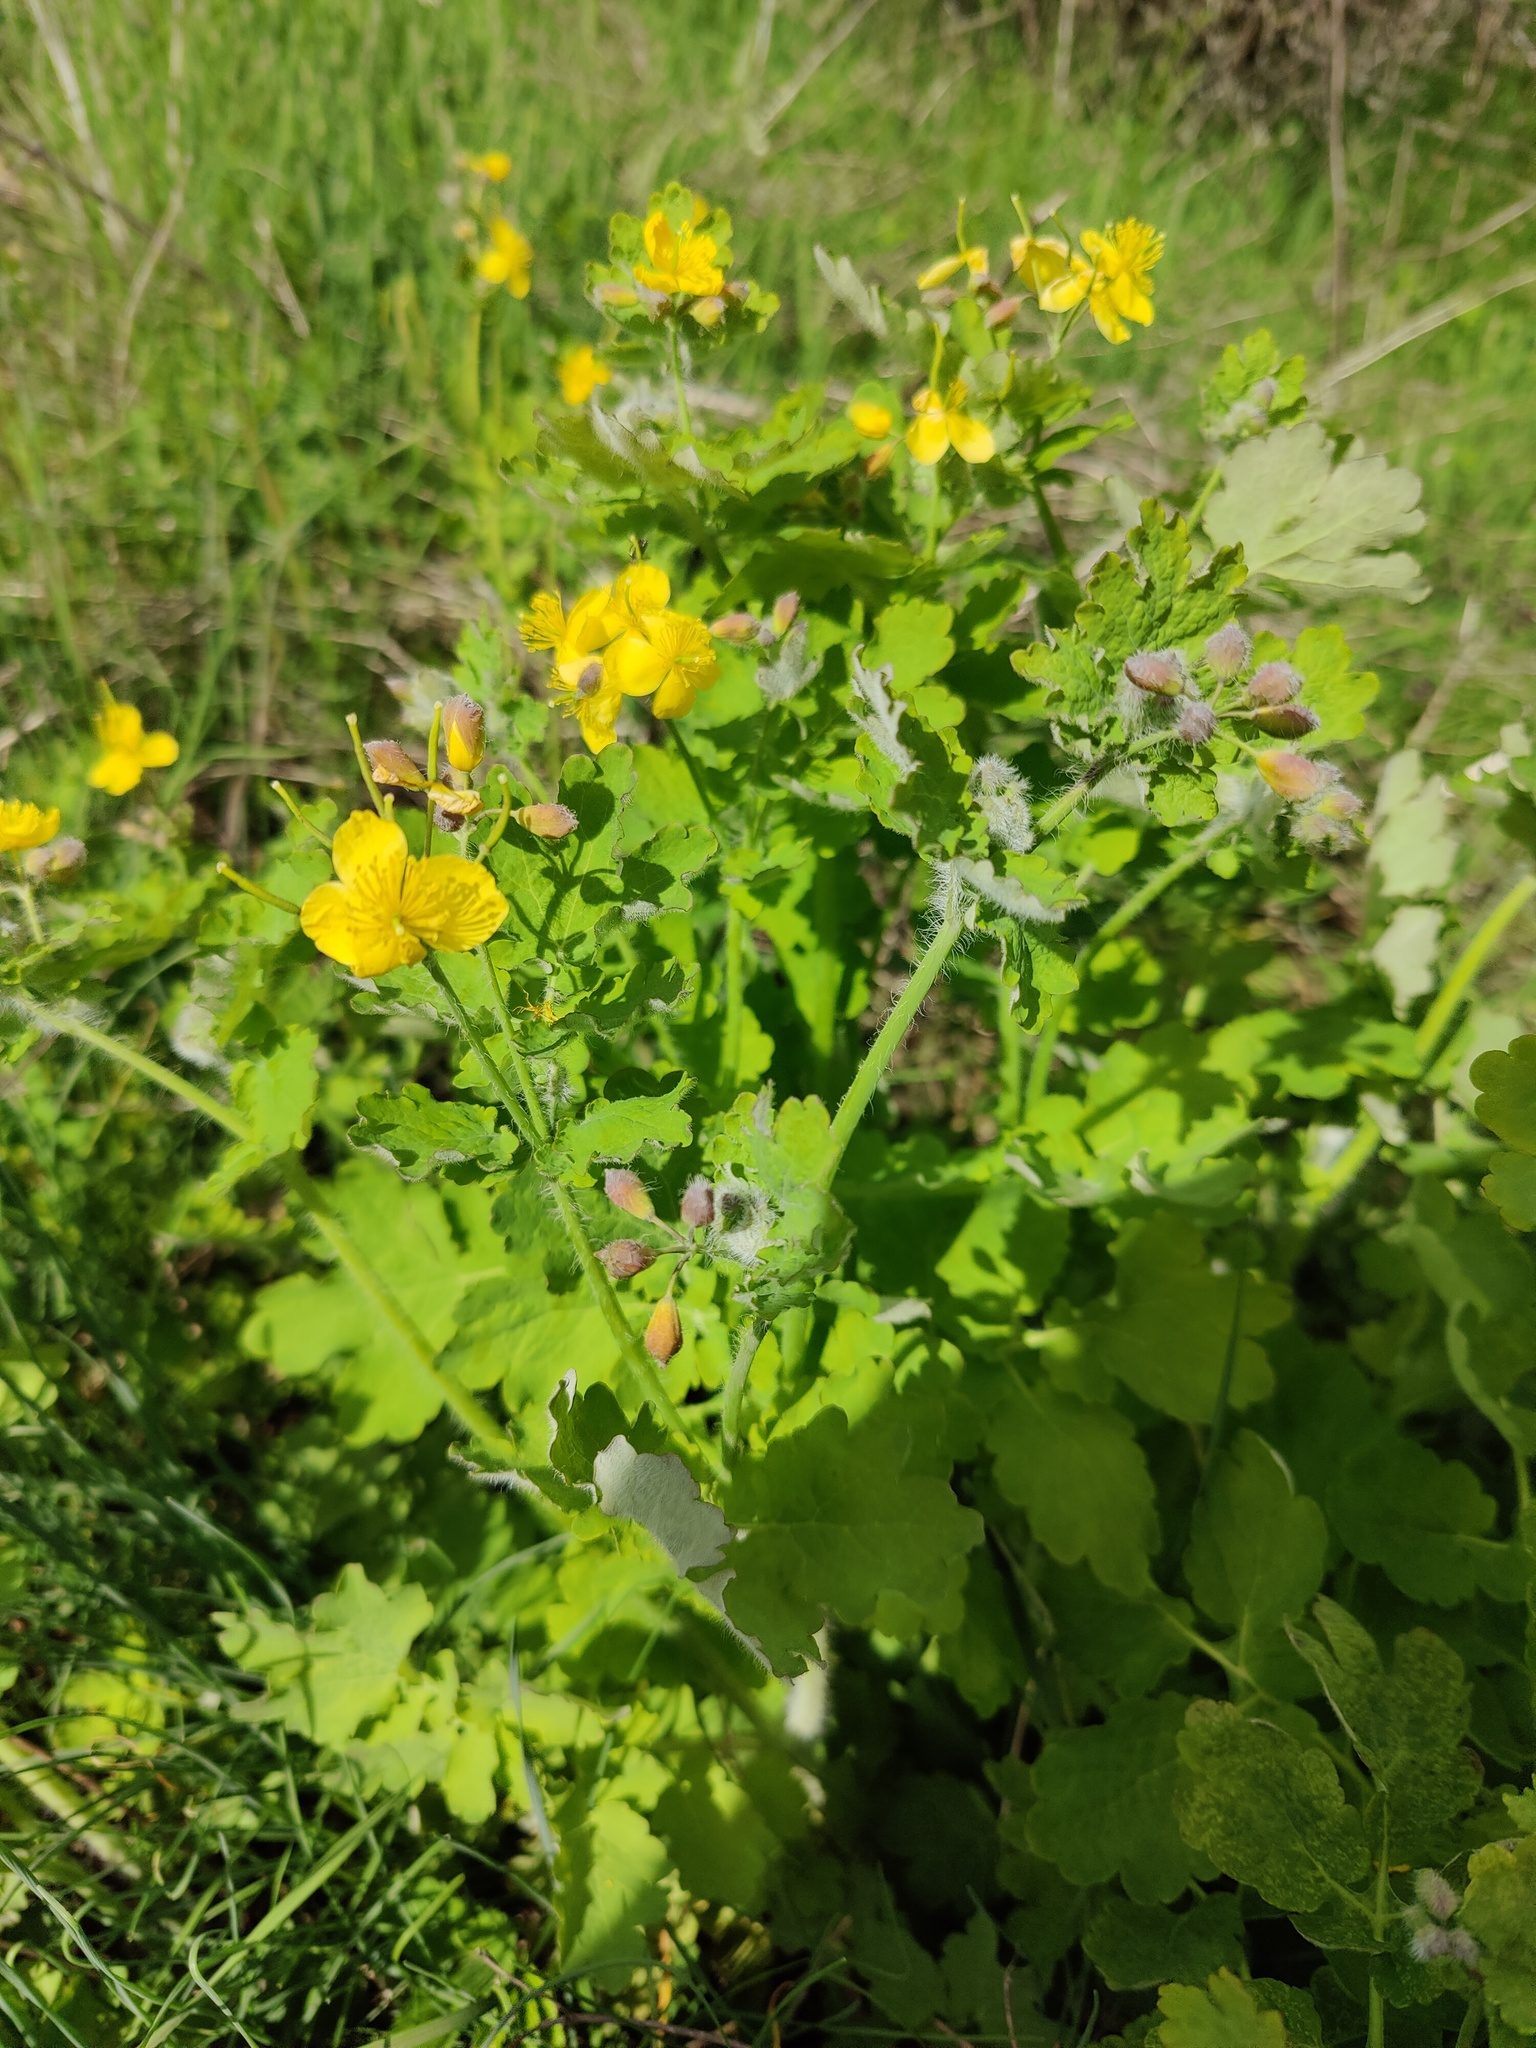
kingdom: Plantae
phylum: Tracheophyta
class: Magnoliopsida
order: Ranunculales
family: Papaveraceae
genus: Chelidonium
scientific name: Chelidonium majus
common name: Greater celandine
